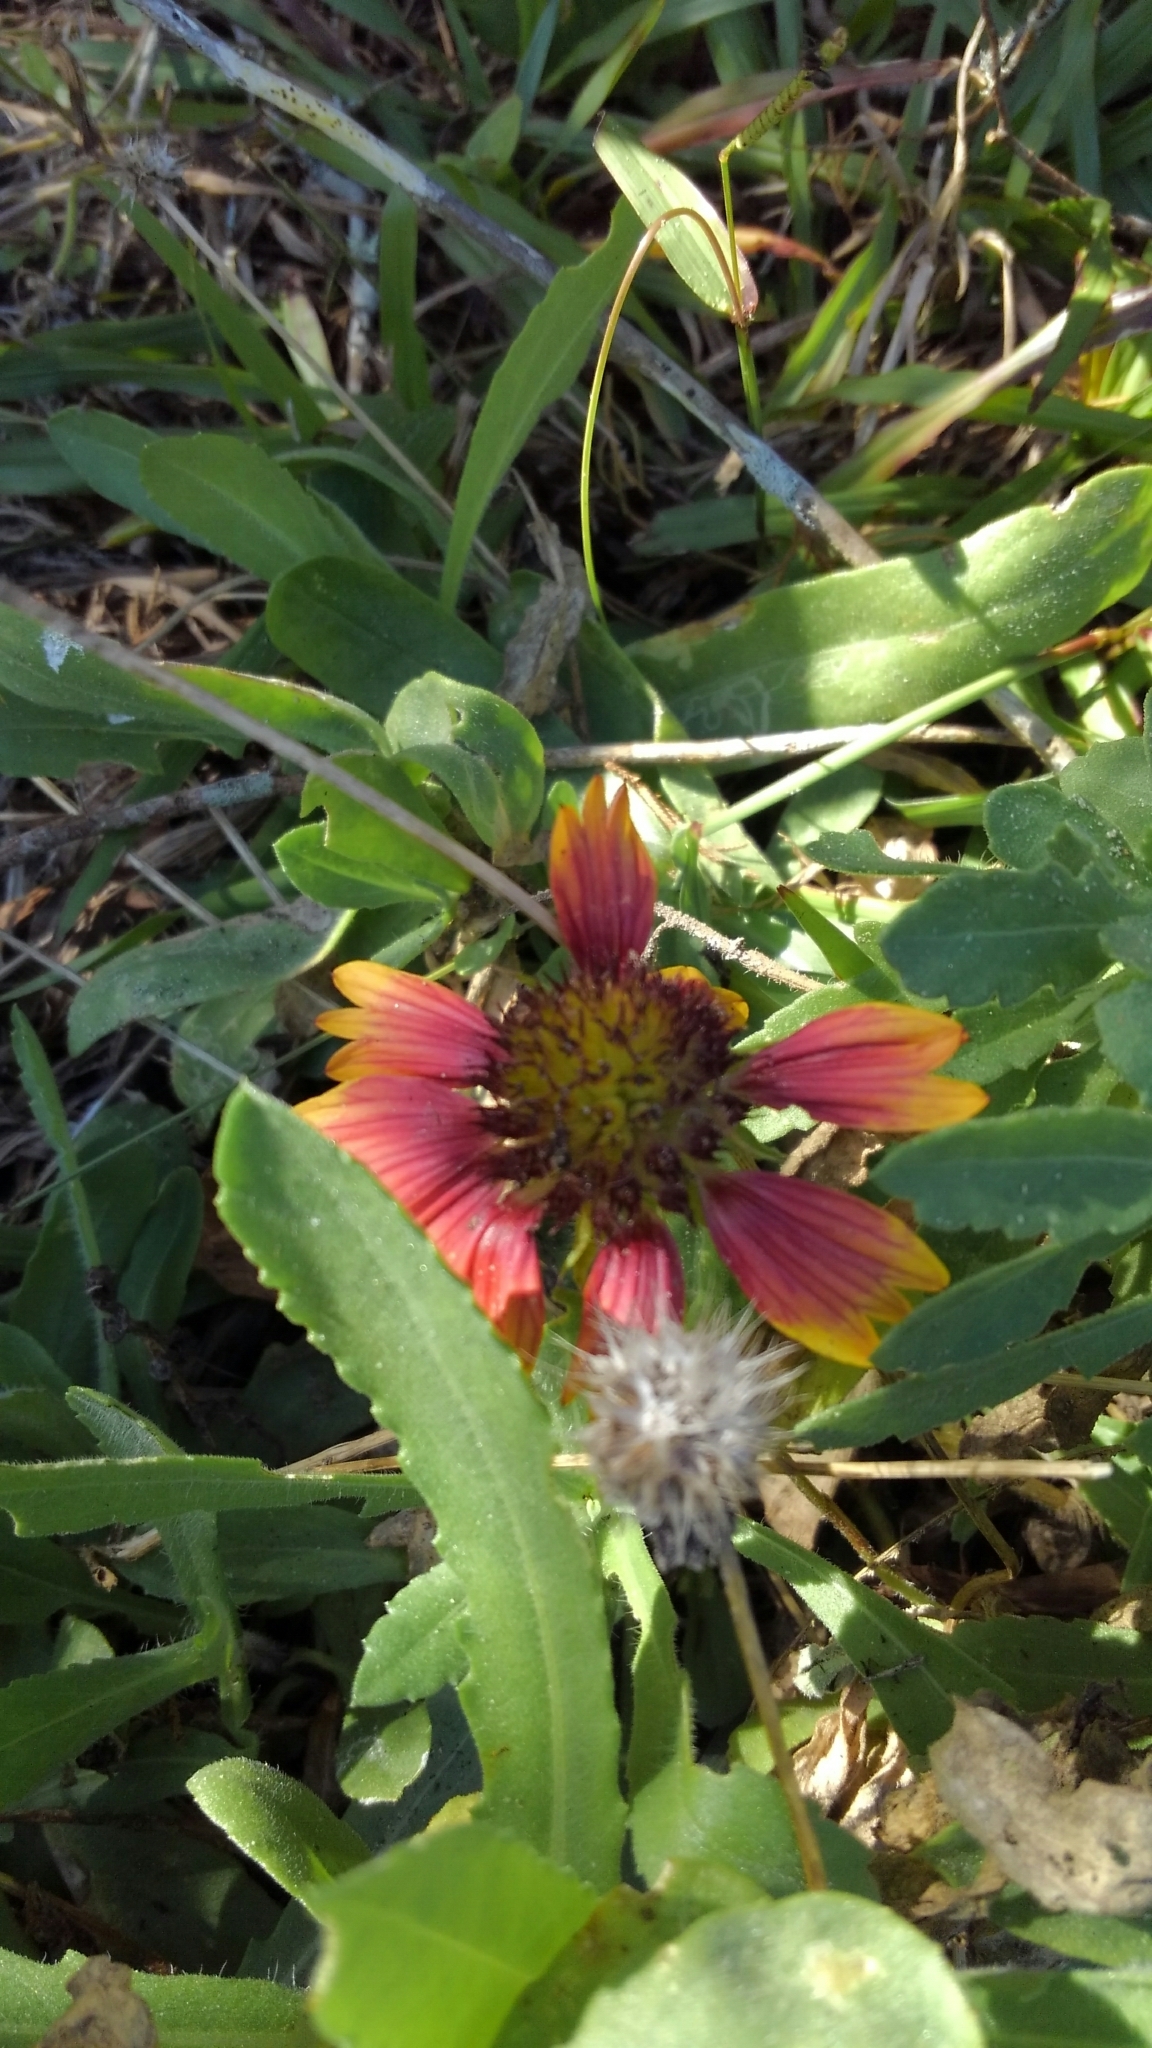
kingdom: Plantae
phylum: Tracheophyta
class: Magnoliopsida
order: Asterales
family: Asteraceae
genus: Gaillardia
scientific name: Gaillardia pulchella
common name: Firewheel
